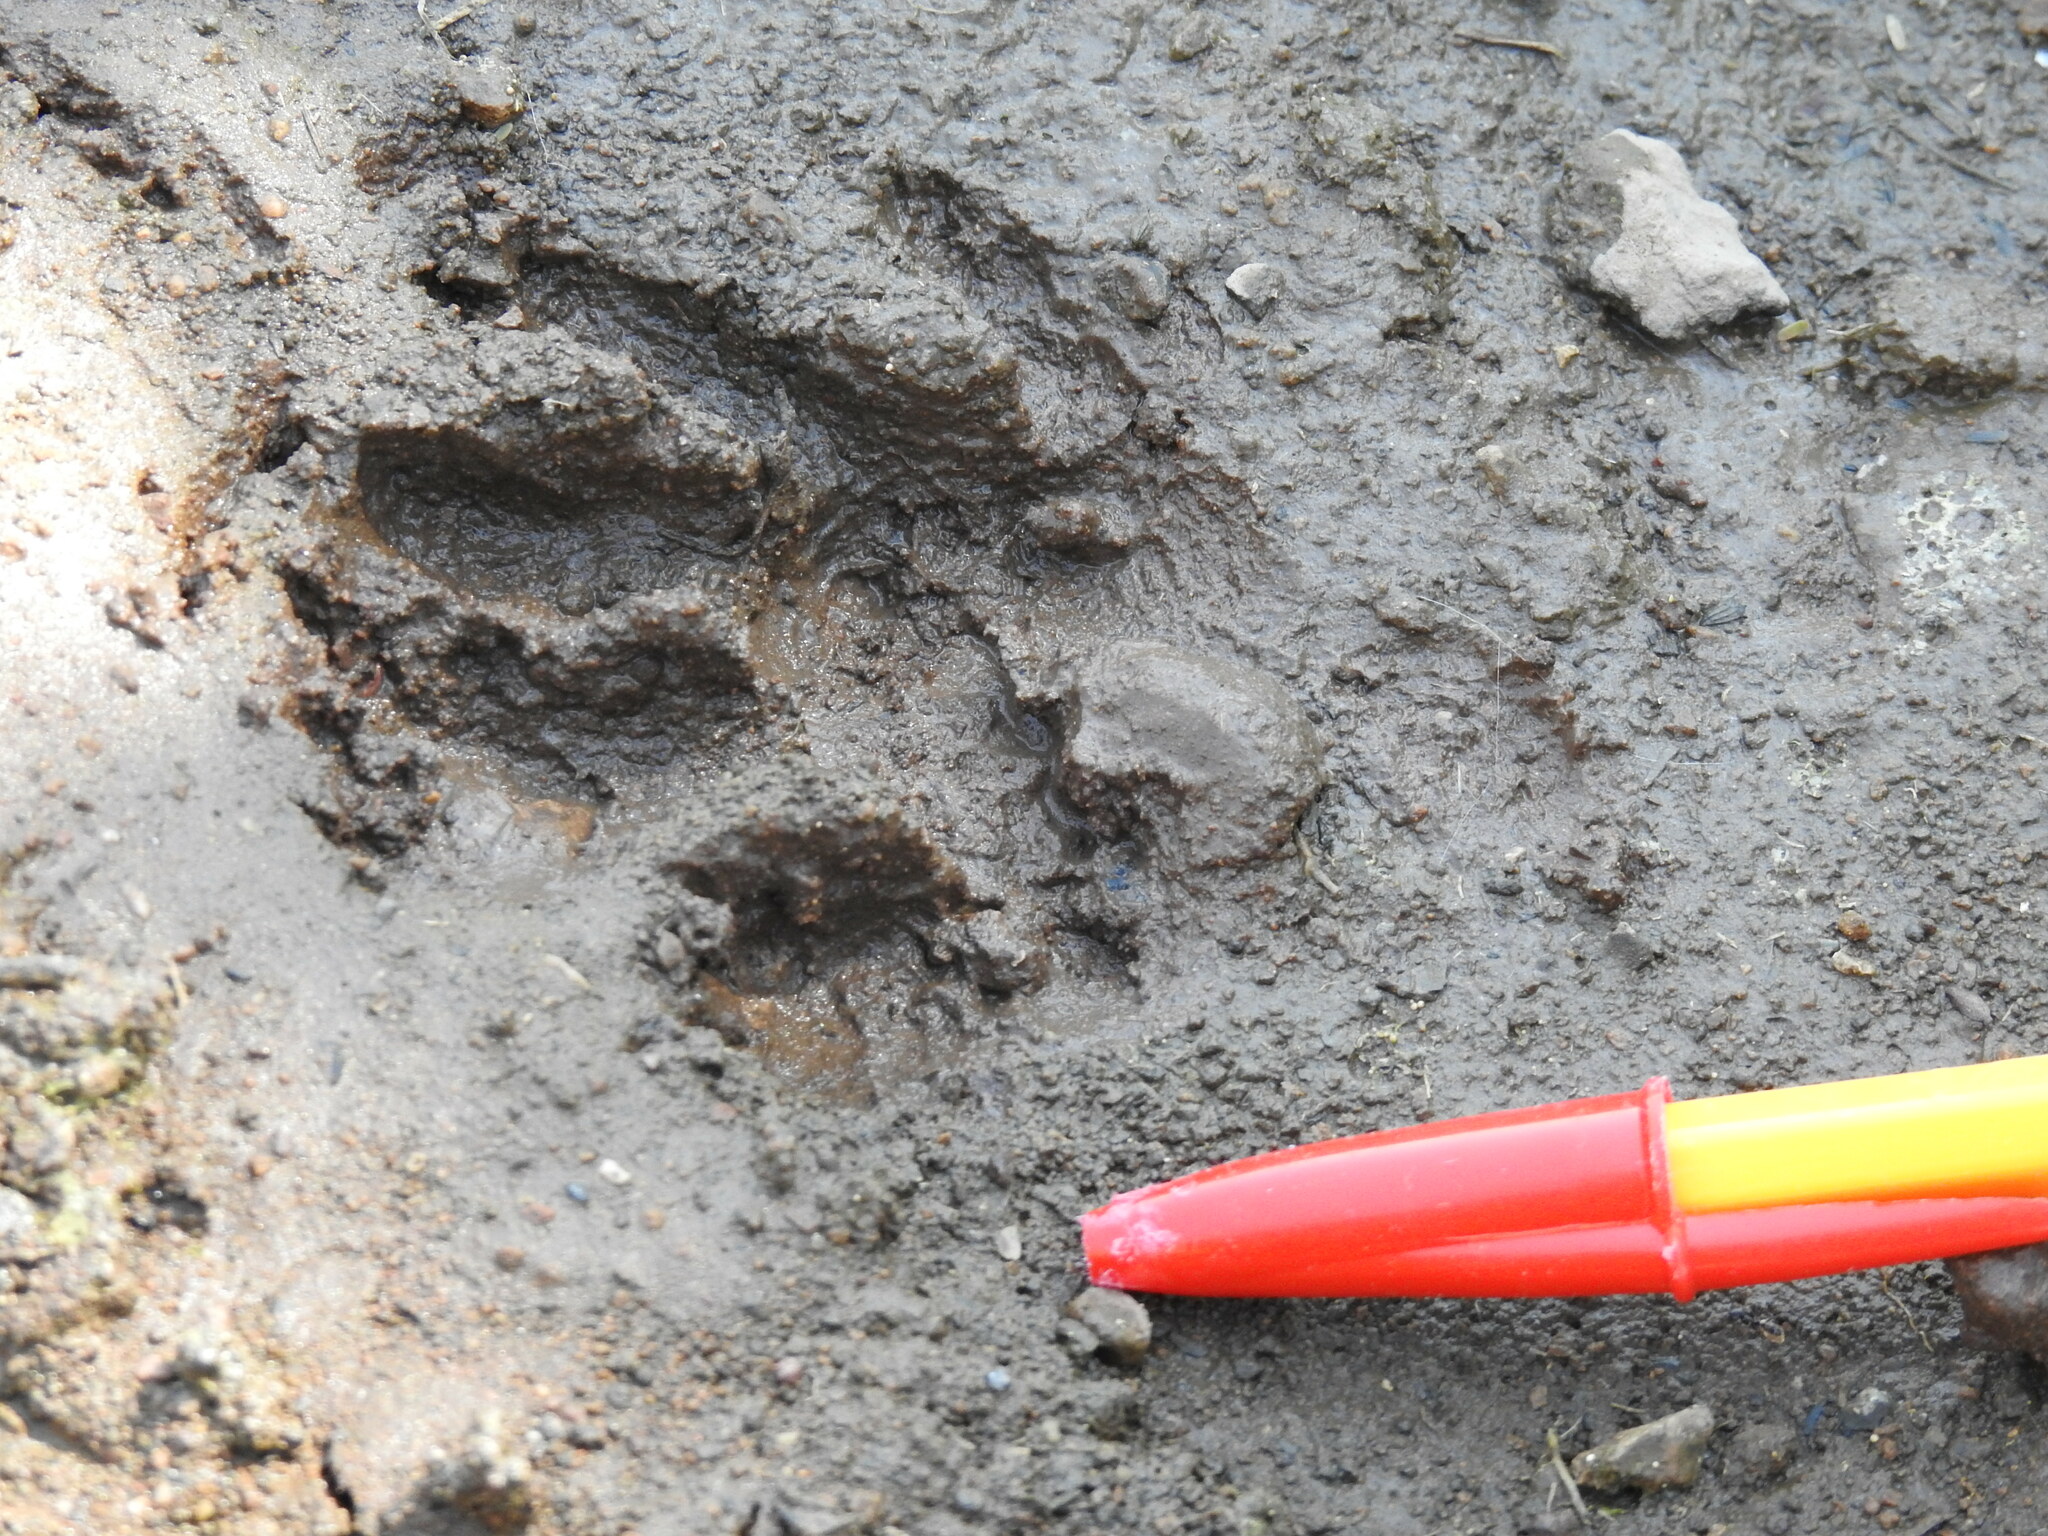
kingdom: Animalia
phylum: Chordata
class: Mammalia
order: Carnivora
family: Procyonidae
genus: Procyon
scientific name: Procyon lotor
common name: Raccoon
